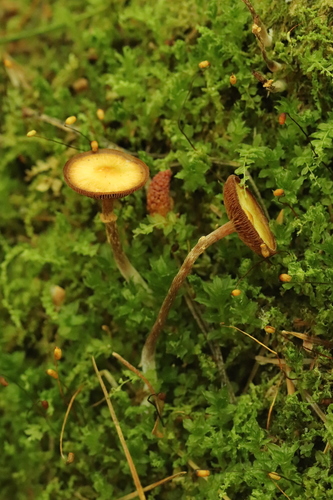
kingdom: Fungi
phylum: Basidiomycota
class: Agaricomycetes
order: Agaricales
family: Strophariaceae
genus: Pholiota
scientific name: Pholiota lignicola
